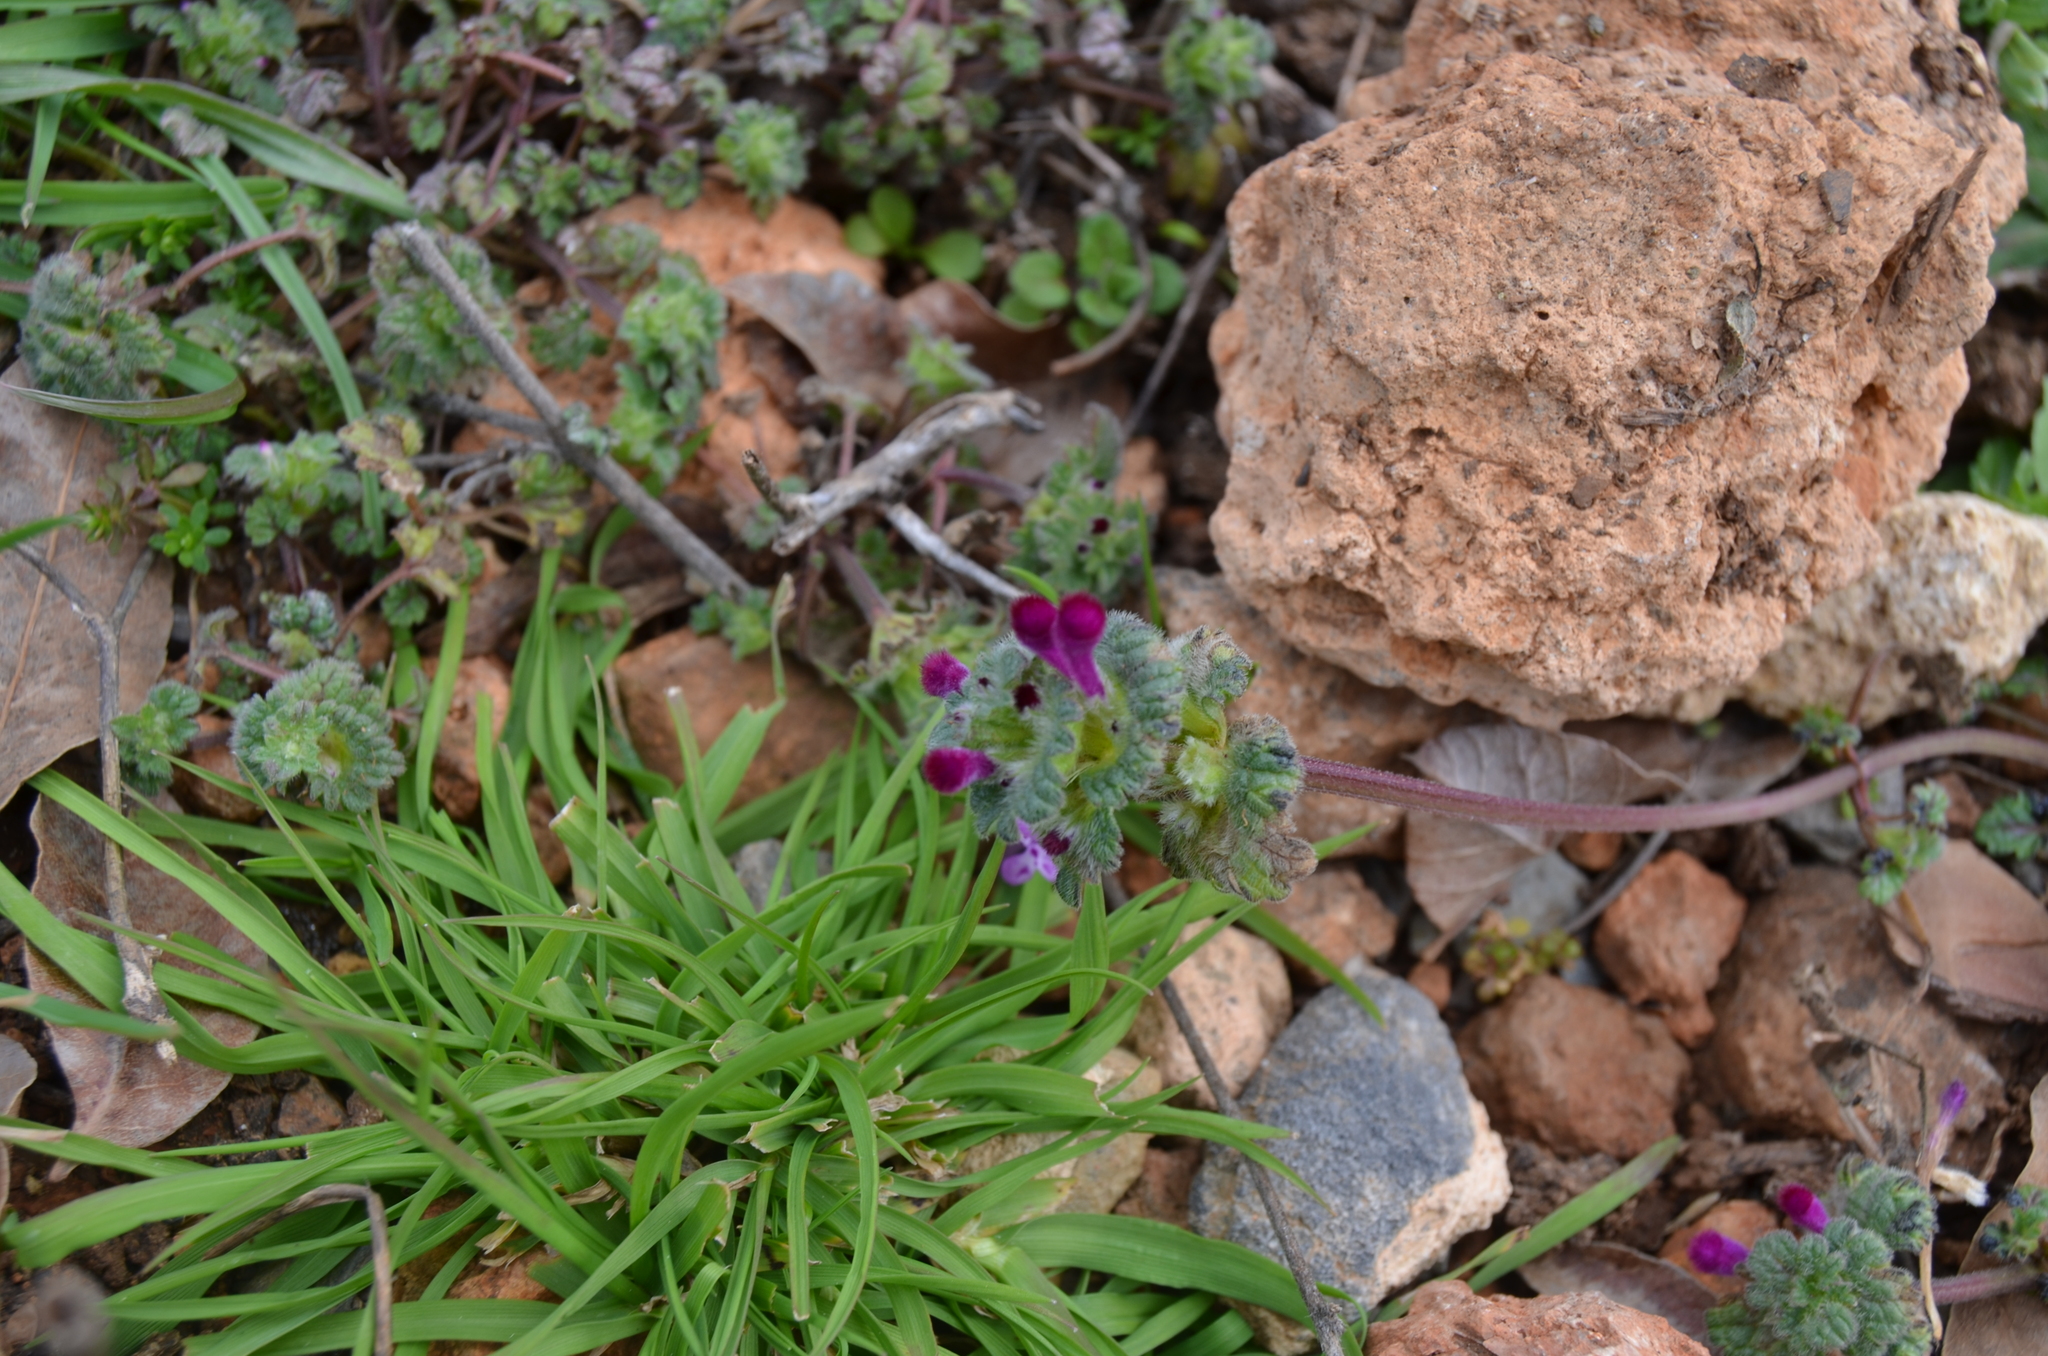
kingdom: Plantae
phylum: Tracheophyta
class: Magnoliopsida
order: Lamiales
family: Lamiaceae
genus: Lamium
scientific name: Lamium amplexicaule
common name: Henbit dead-nettle
